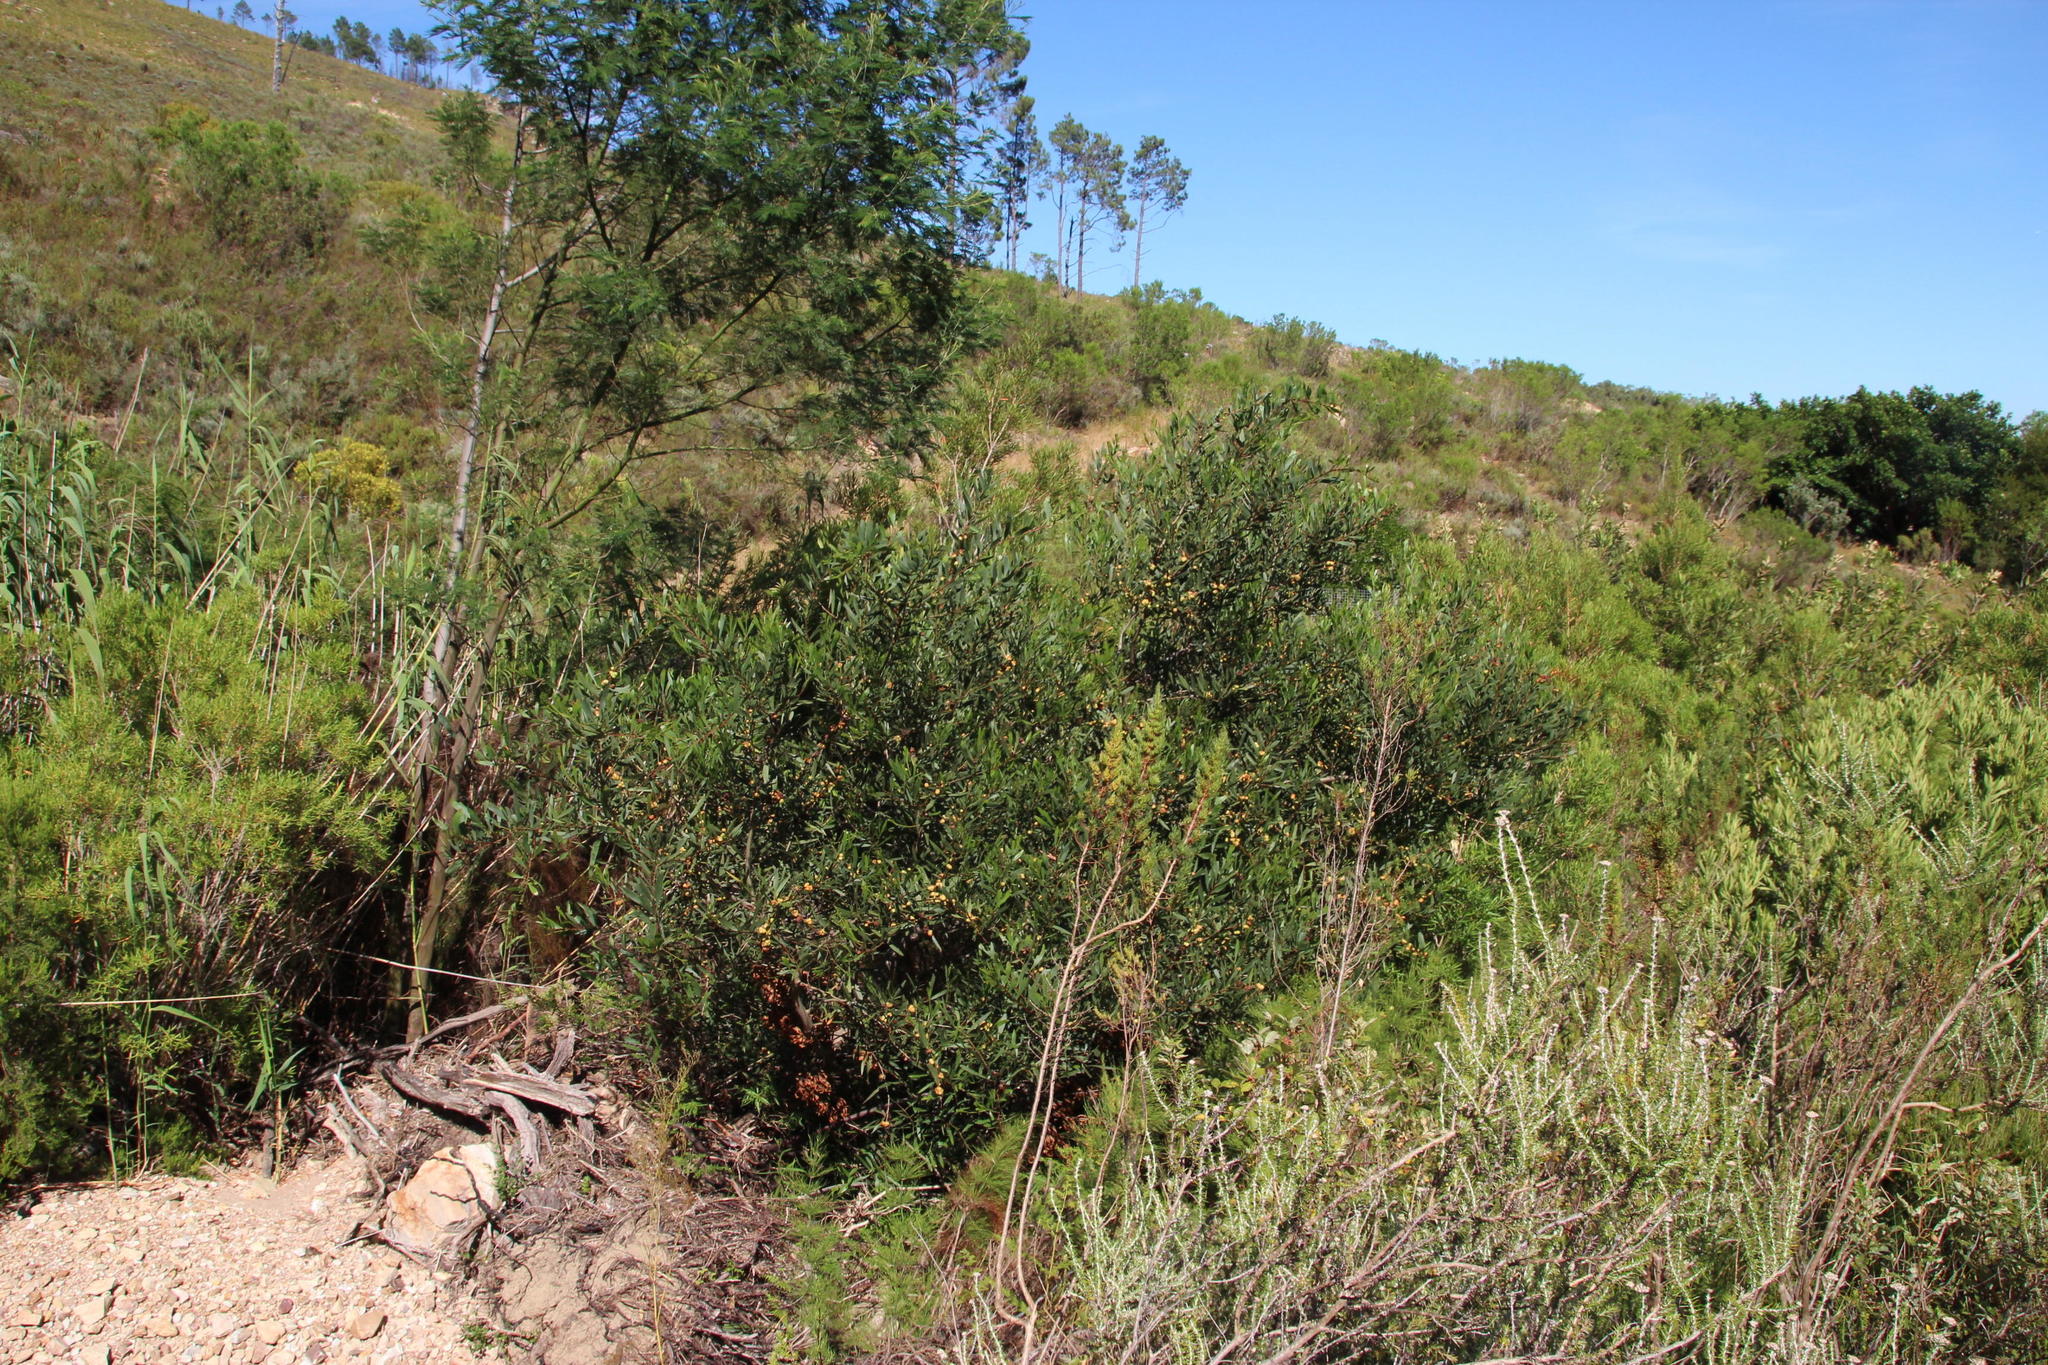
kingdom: Plantae
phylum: Tracheophyta
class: Magnoliopsida
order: Fabales
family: Fabaceae
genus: Acacia
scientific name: Acacia longifolia
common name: Sydney golden wattle
